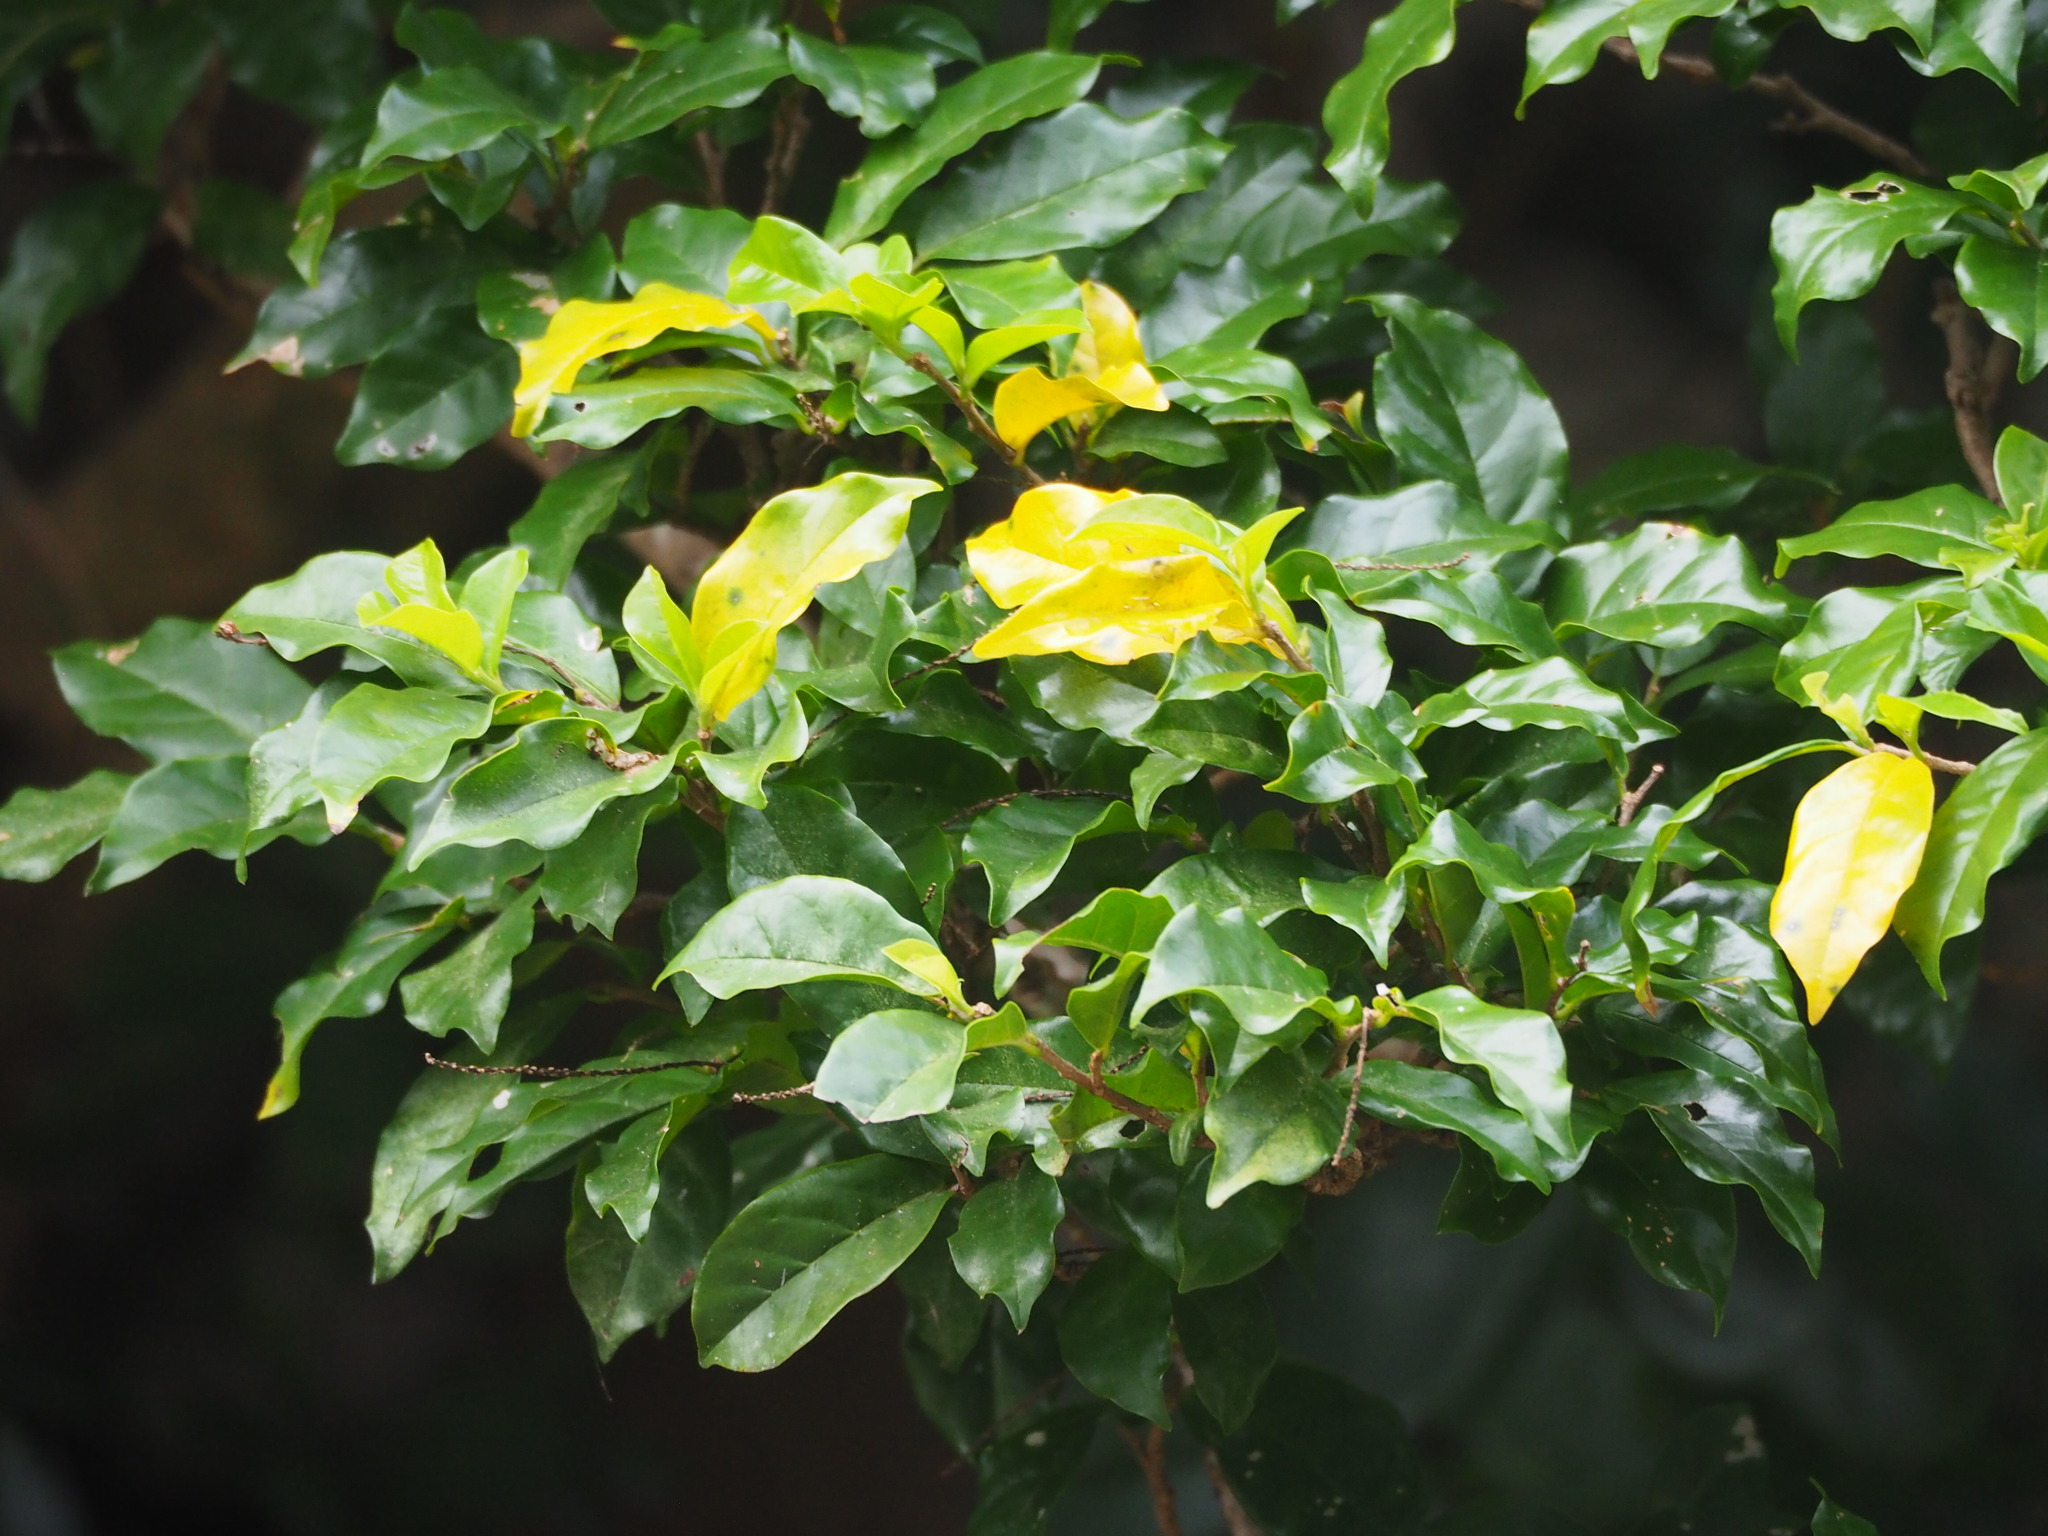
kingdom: Plantae
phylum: Tracheophyta
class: Magnoliopsida
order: Malpighiales
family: Phyllanthaceae
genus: Antidesma
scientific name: Antidesma montanum
